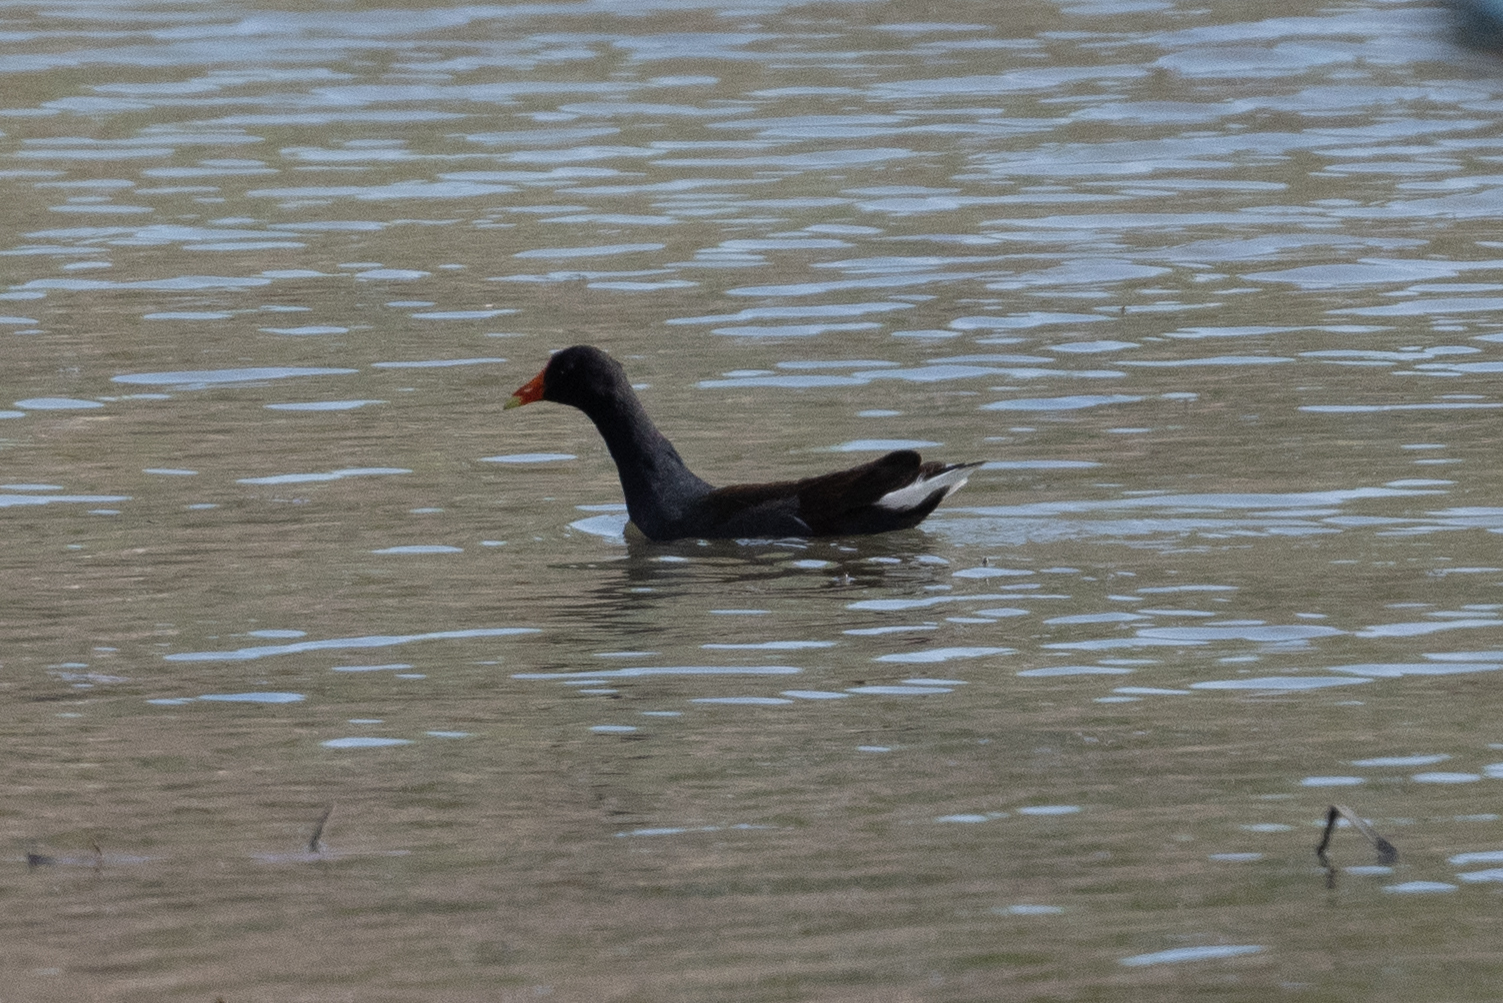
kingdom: Animalia
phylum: Chordata
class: Aves
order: Gruiformes
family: Rallidae
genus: Gallinula
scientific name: Gallinula chloropus
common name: Common moorhen
